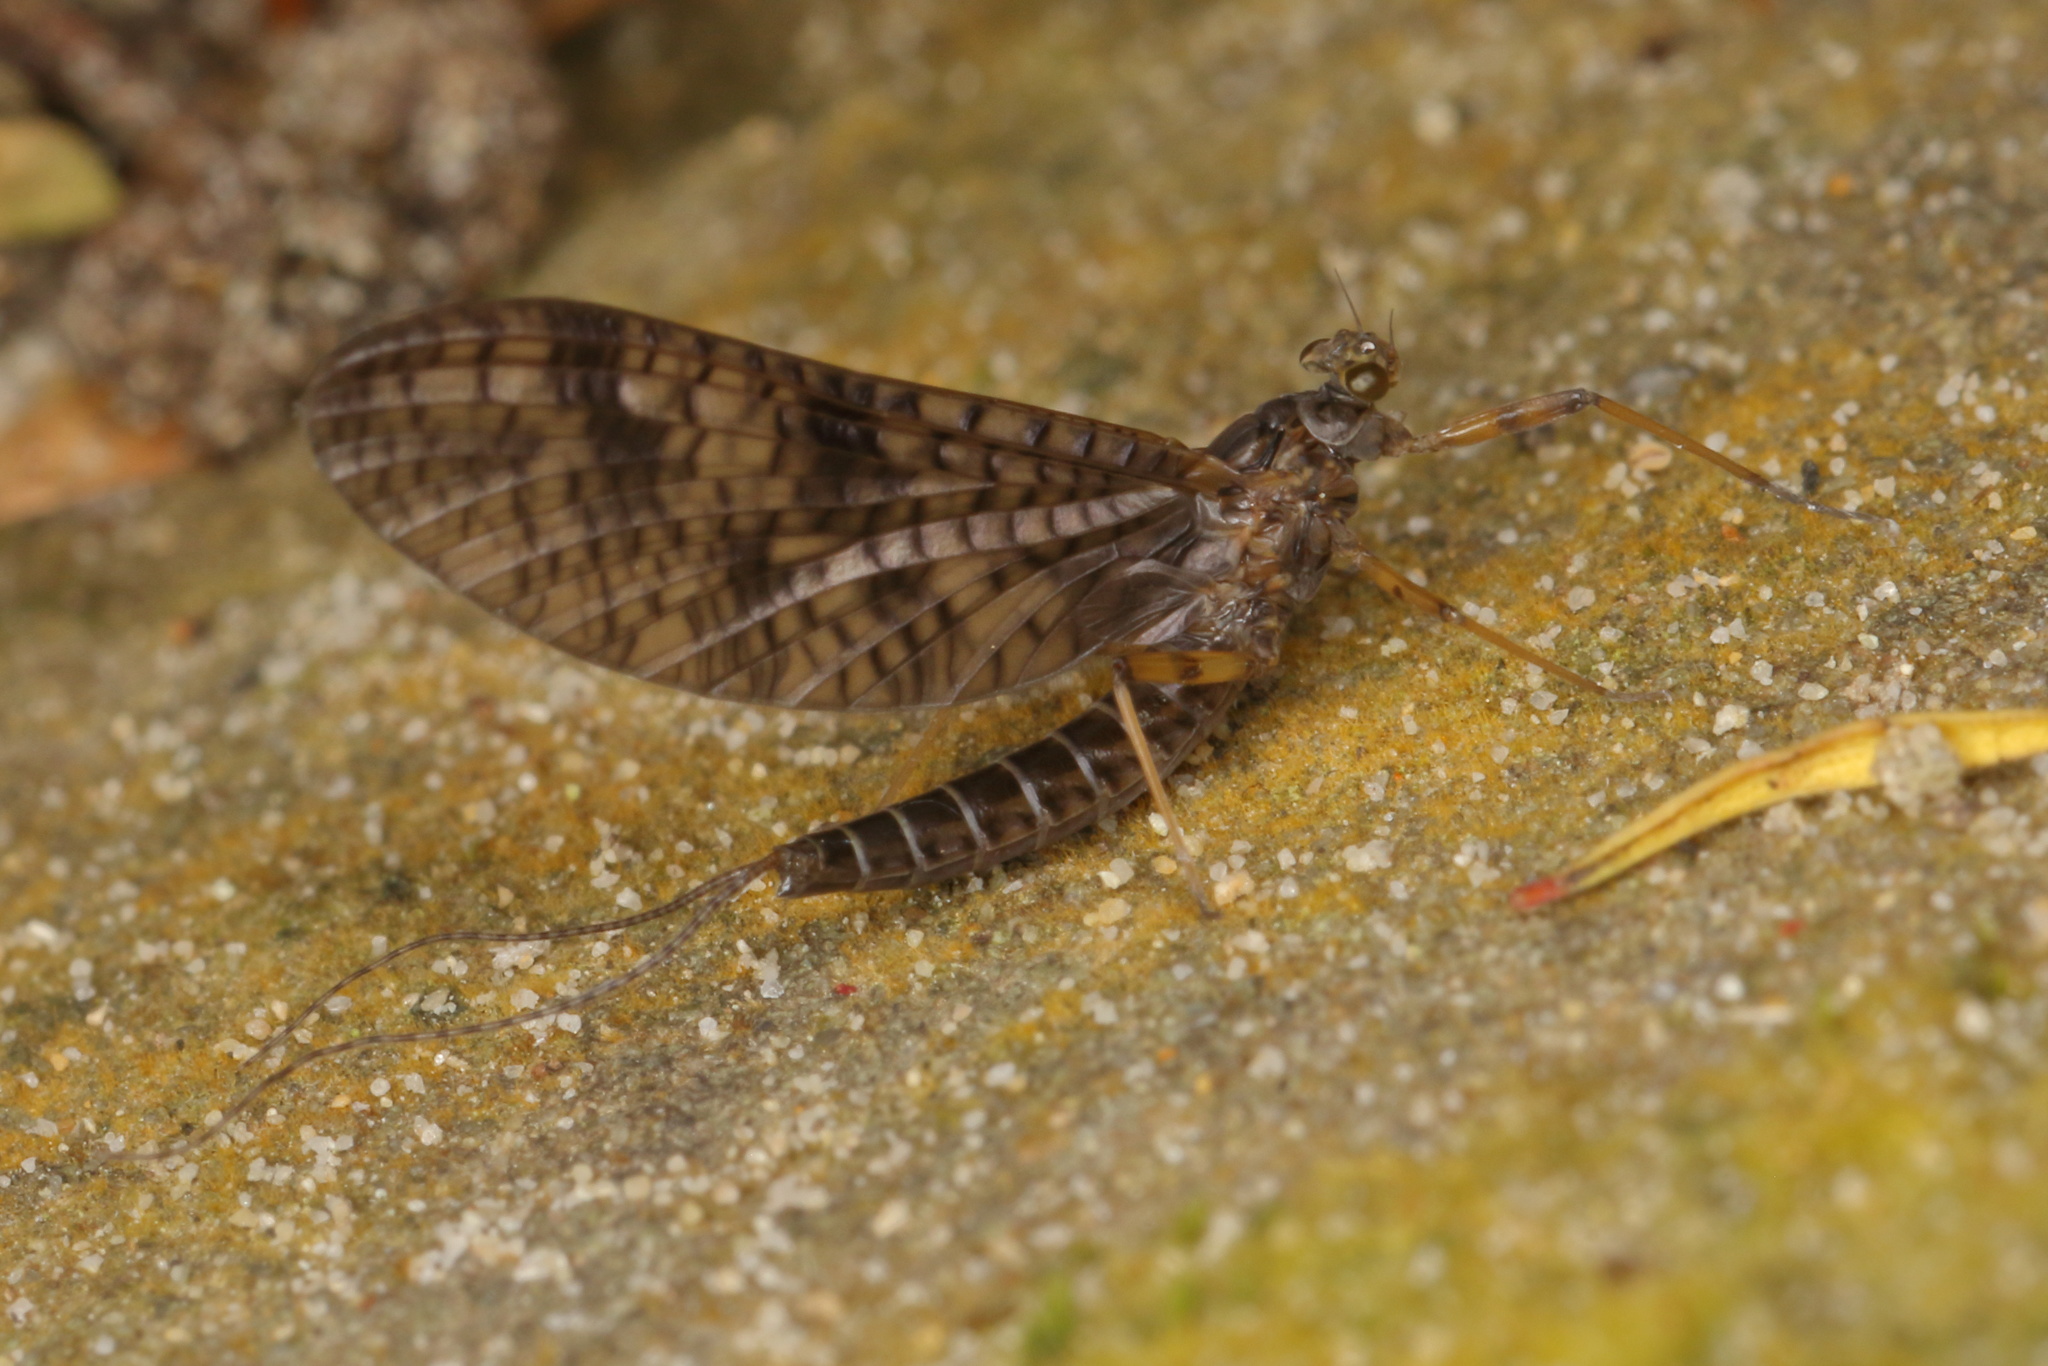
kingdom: Animalia
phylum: Arthropoda
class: Insecta
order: Ephemeroptera
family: Leptophlebiidae
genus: Neozephlebia
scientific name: Neozephlebia scita
